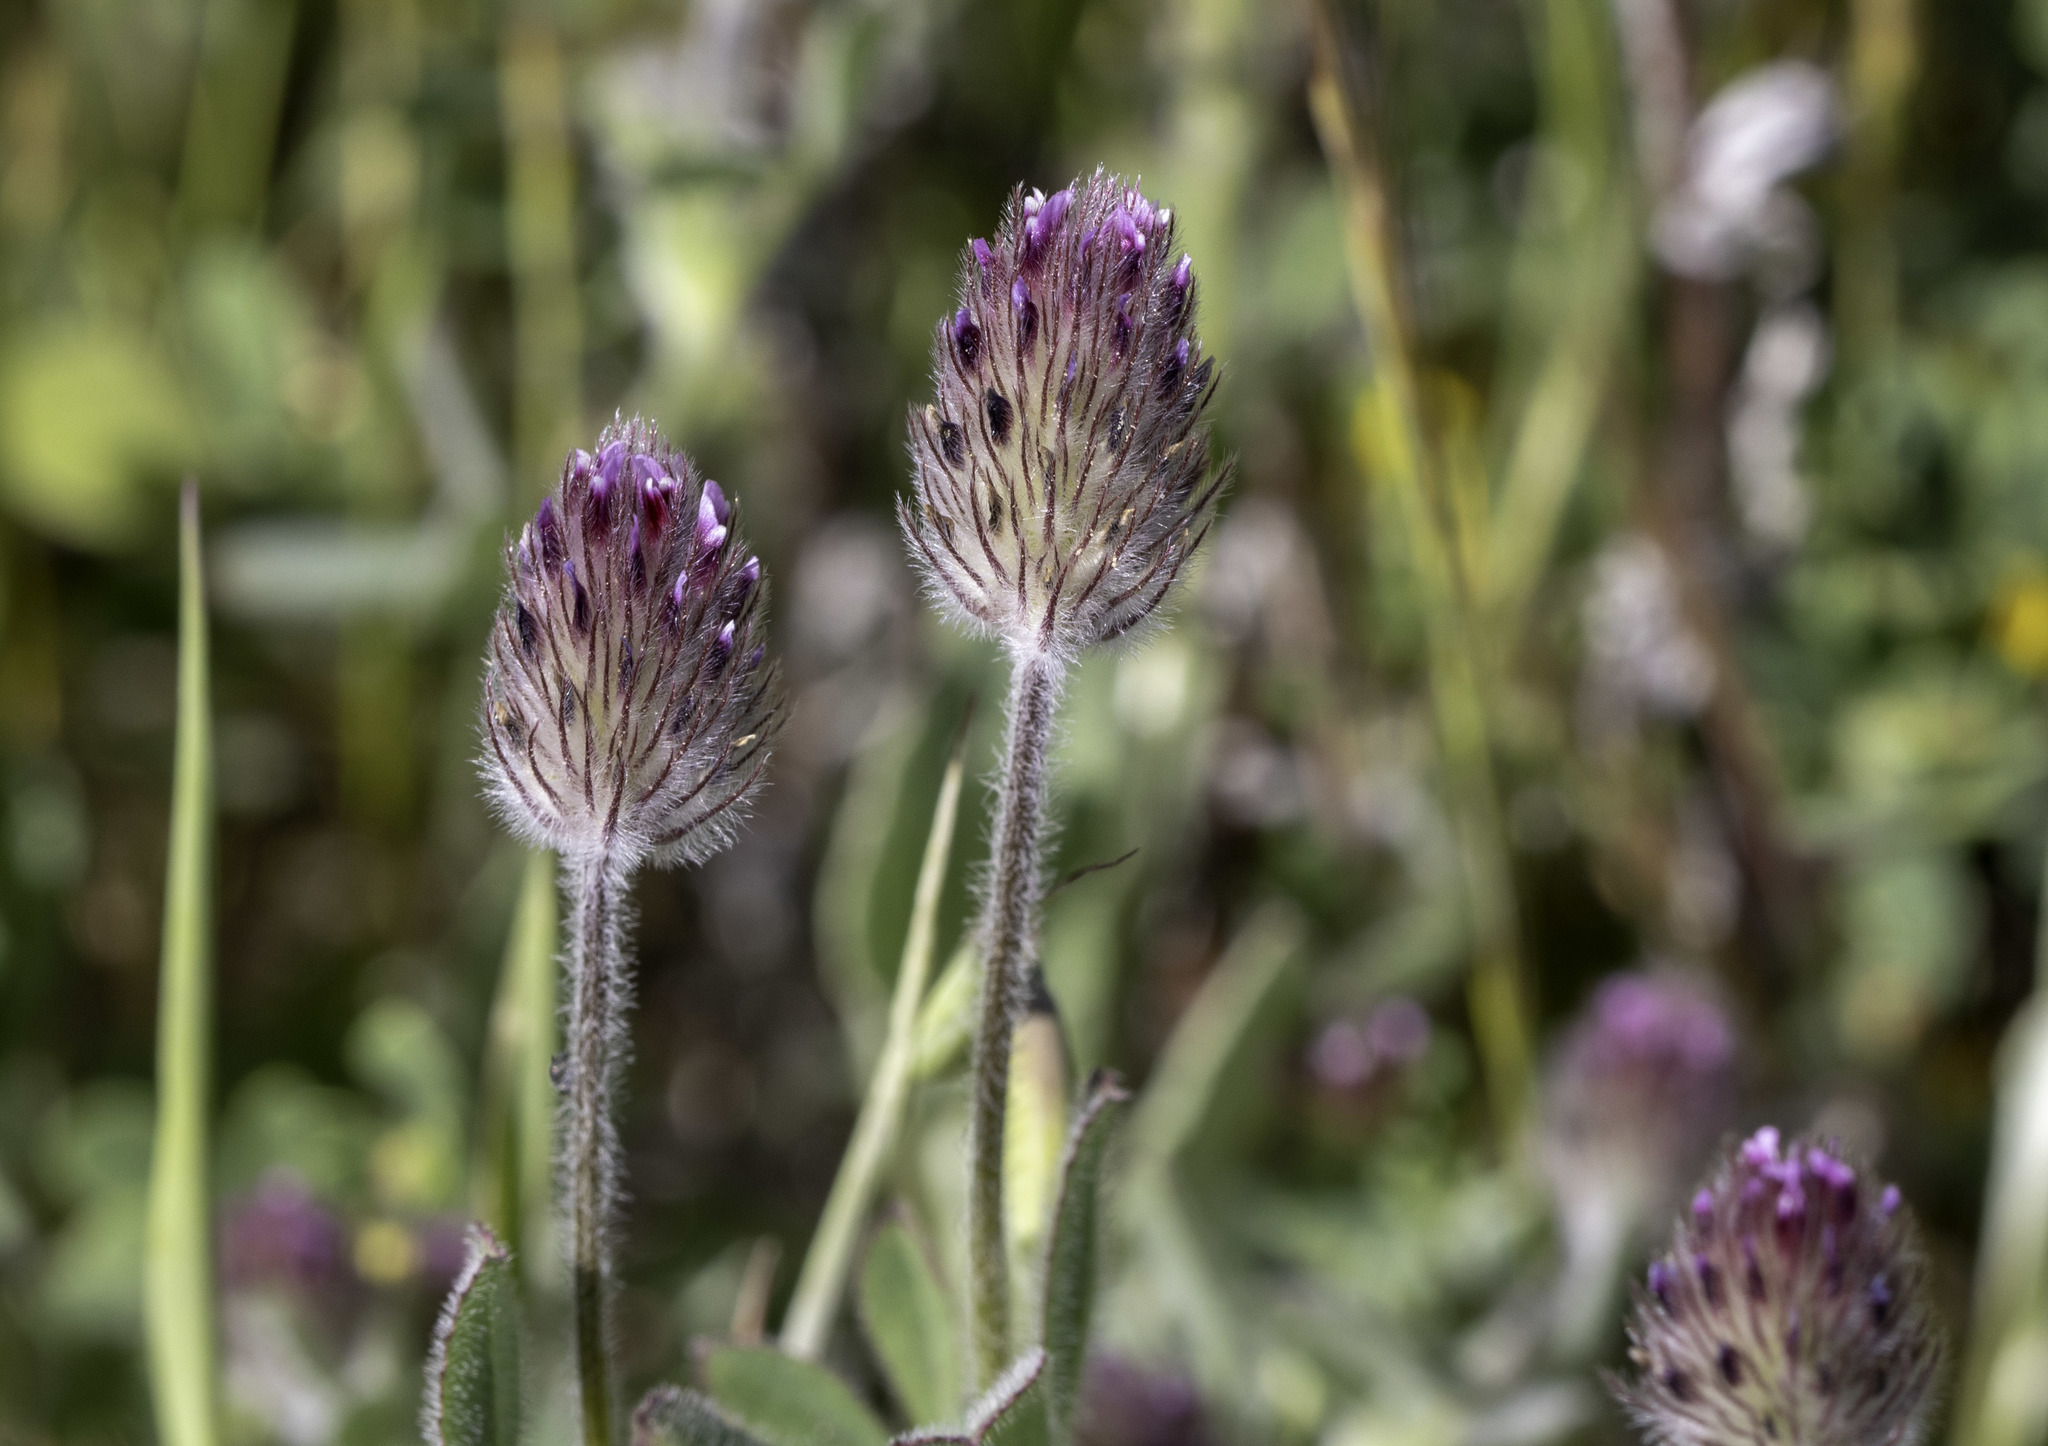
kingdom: Plantae
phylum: Tracheophyta
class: Magnoliopsida
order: Fabales
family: Fabaceae
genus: Trifolium
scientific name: Trifolium albopurpureum
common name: Rancheria clover
